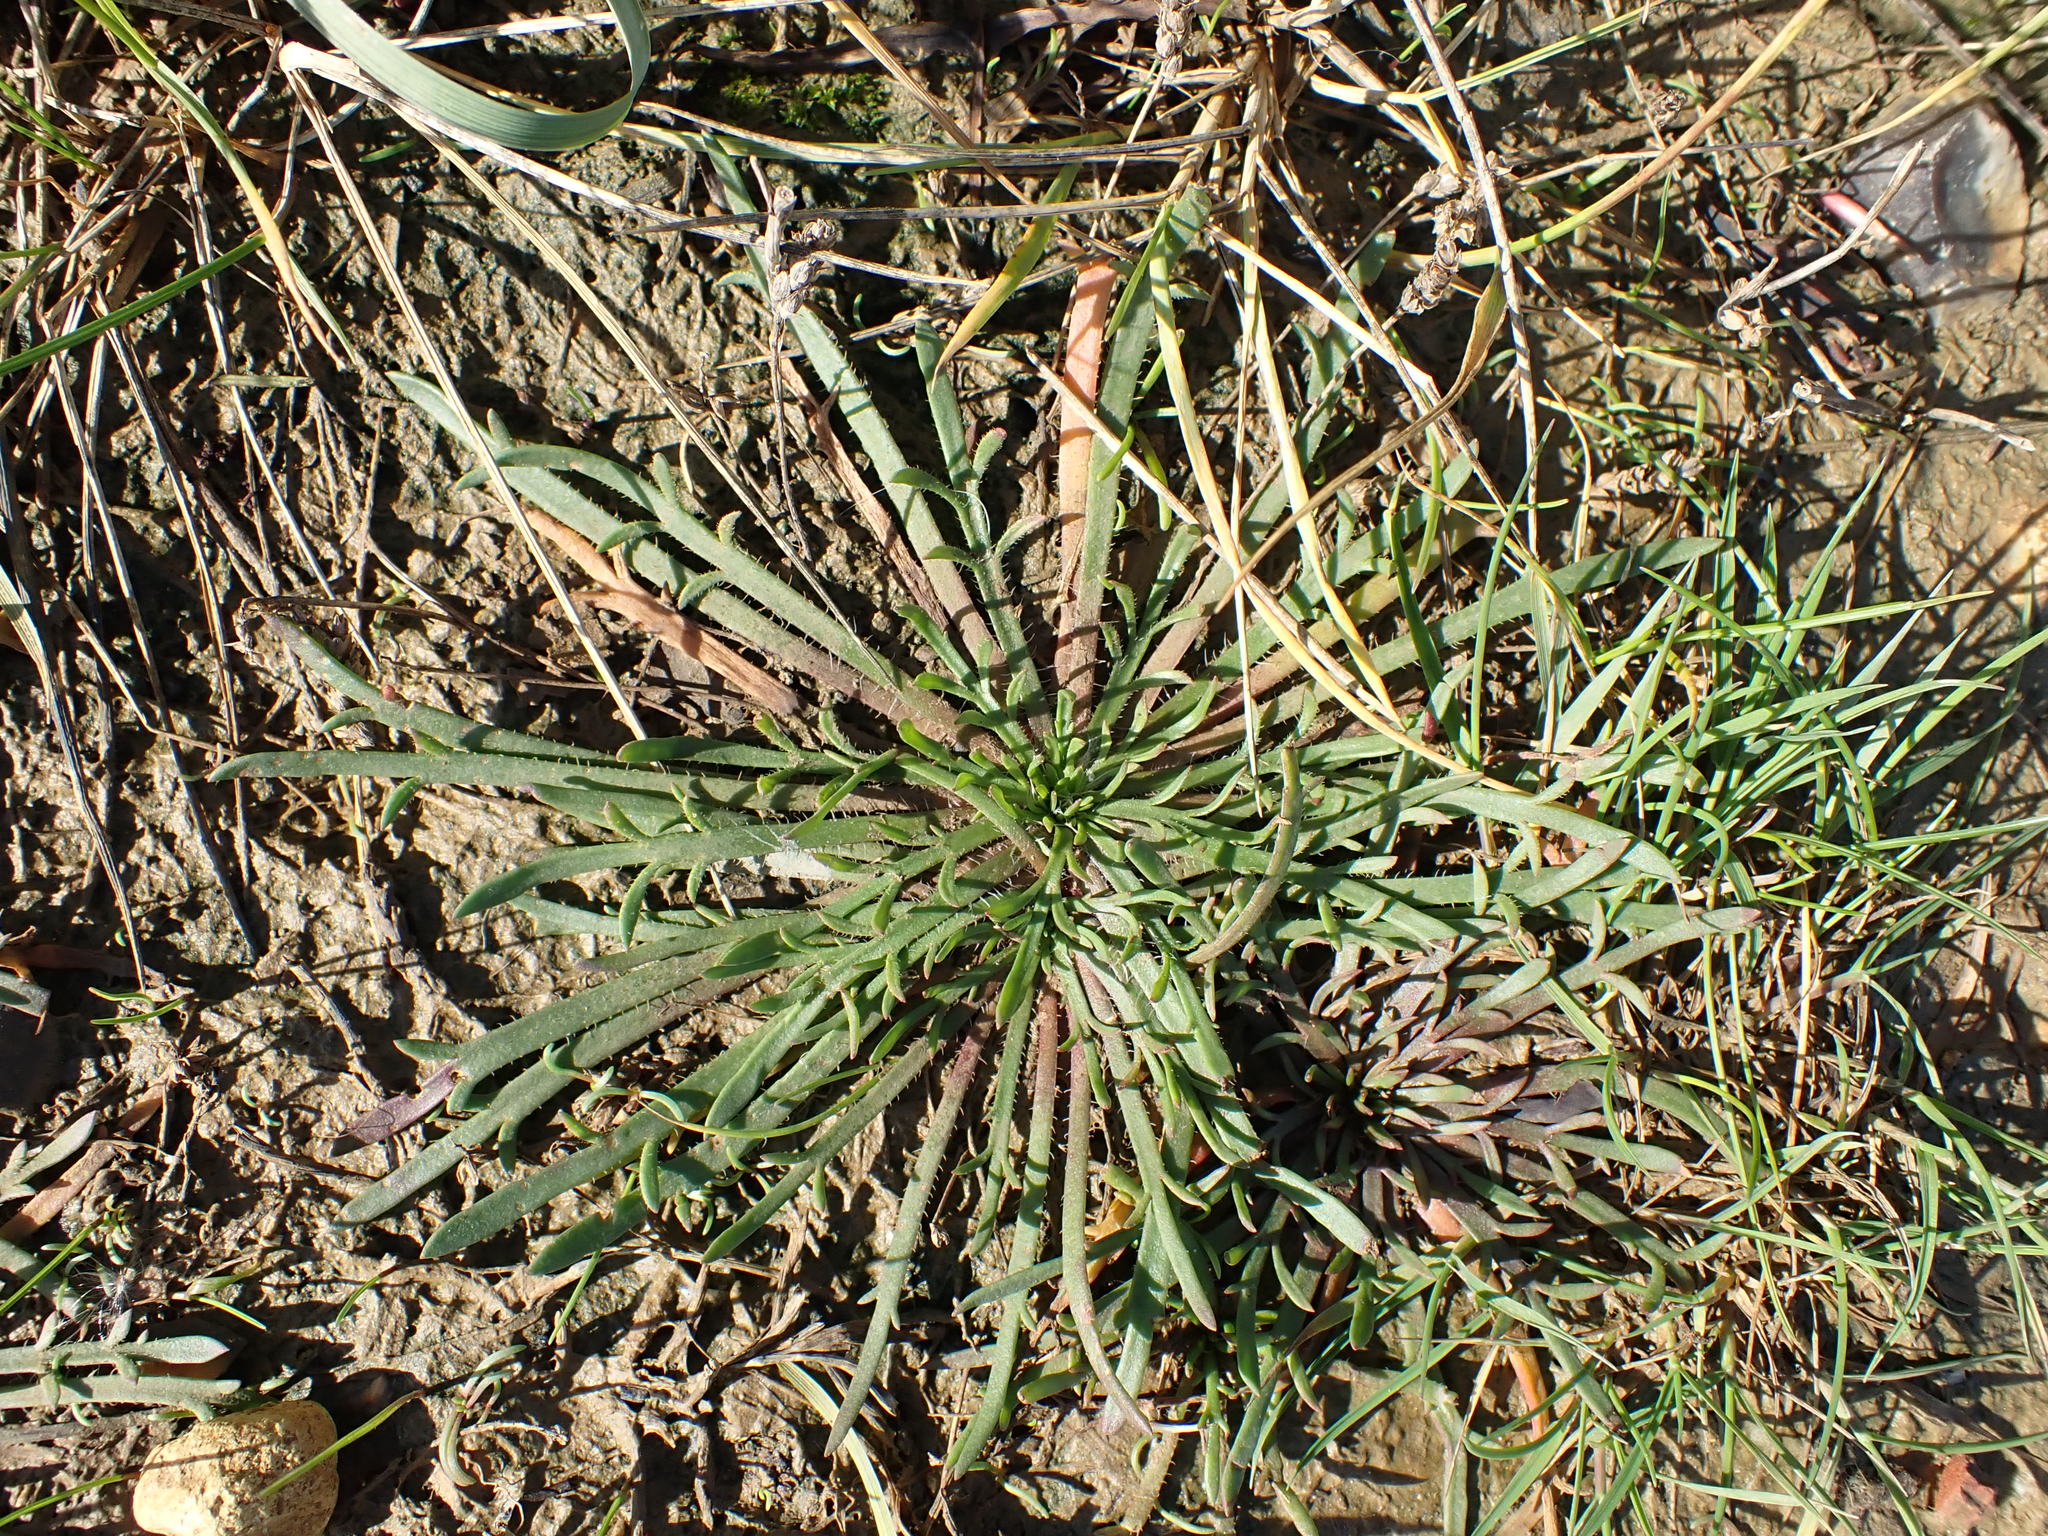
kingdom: Plantae
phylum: Tracheophyta
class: Magnoliopsida
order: Lamiales
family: Plantaginaceae
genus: Plantago
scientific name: Plantago coronopus
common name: Buck's-horn plantain
